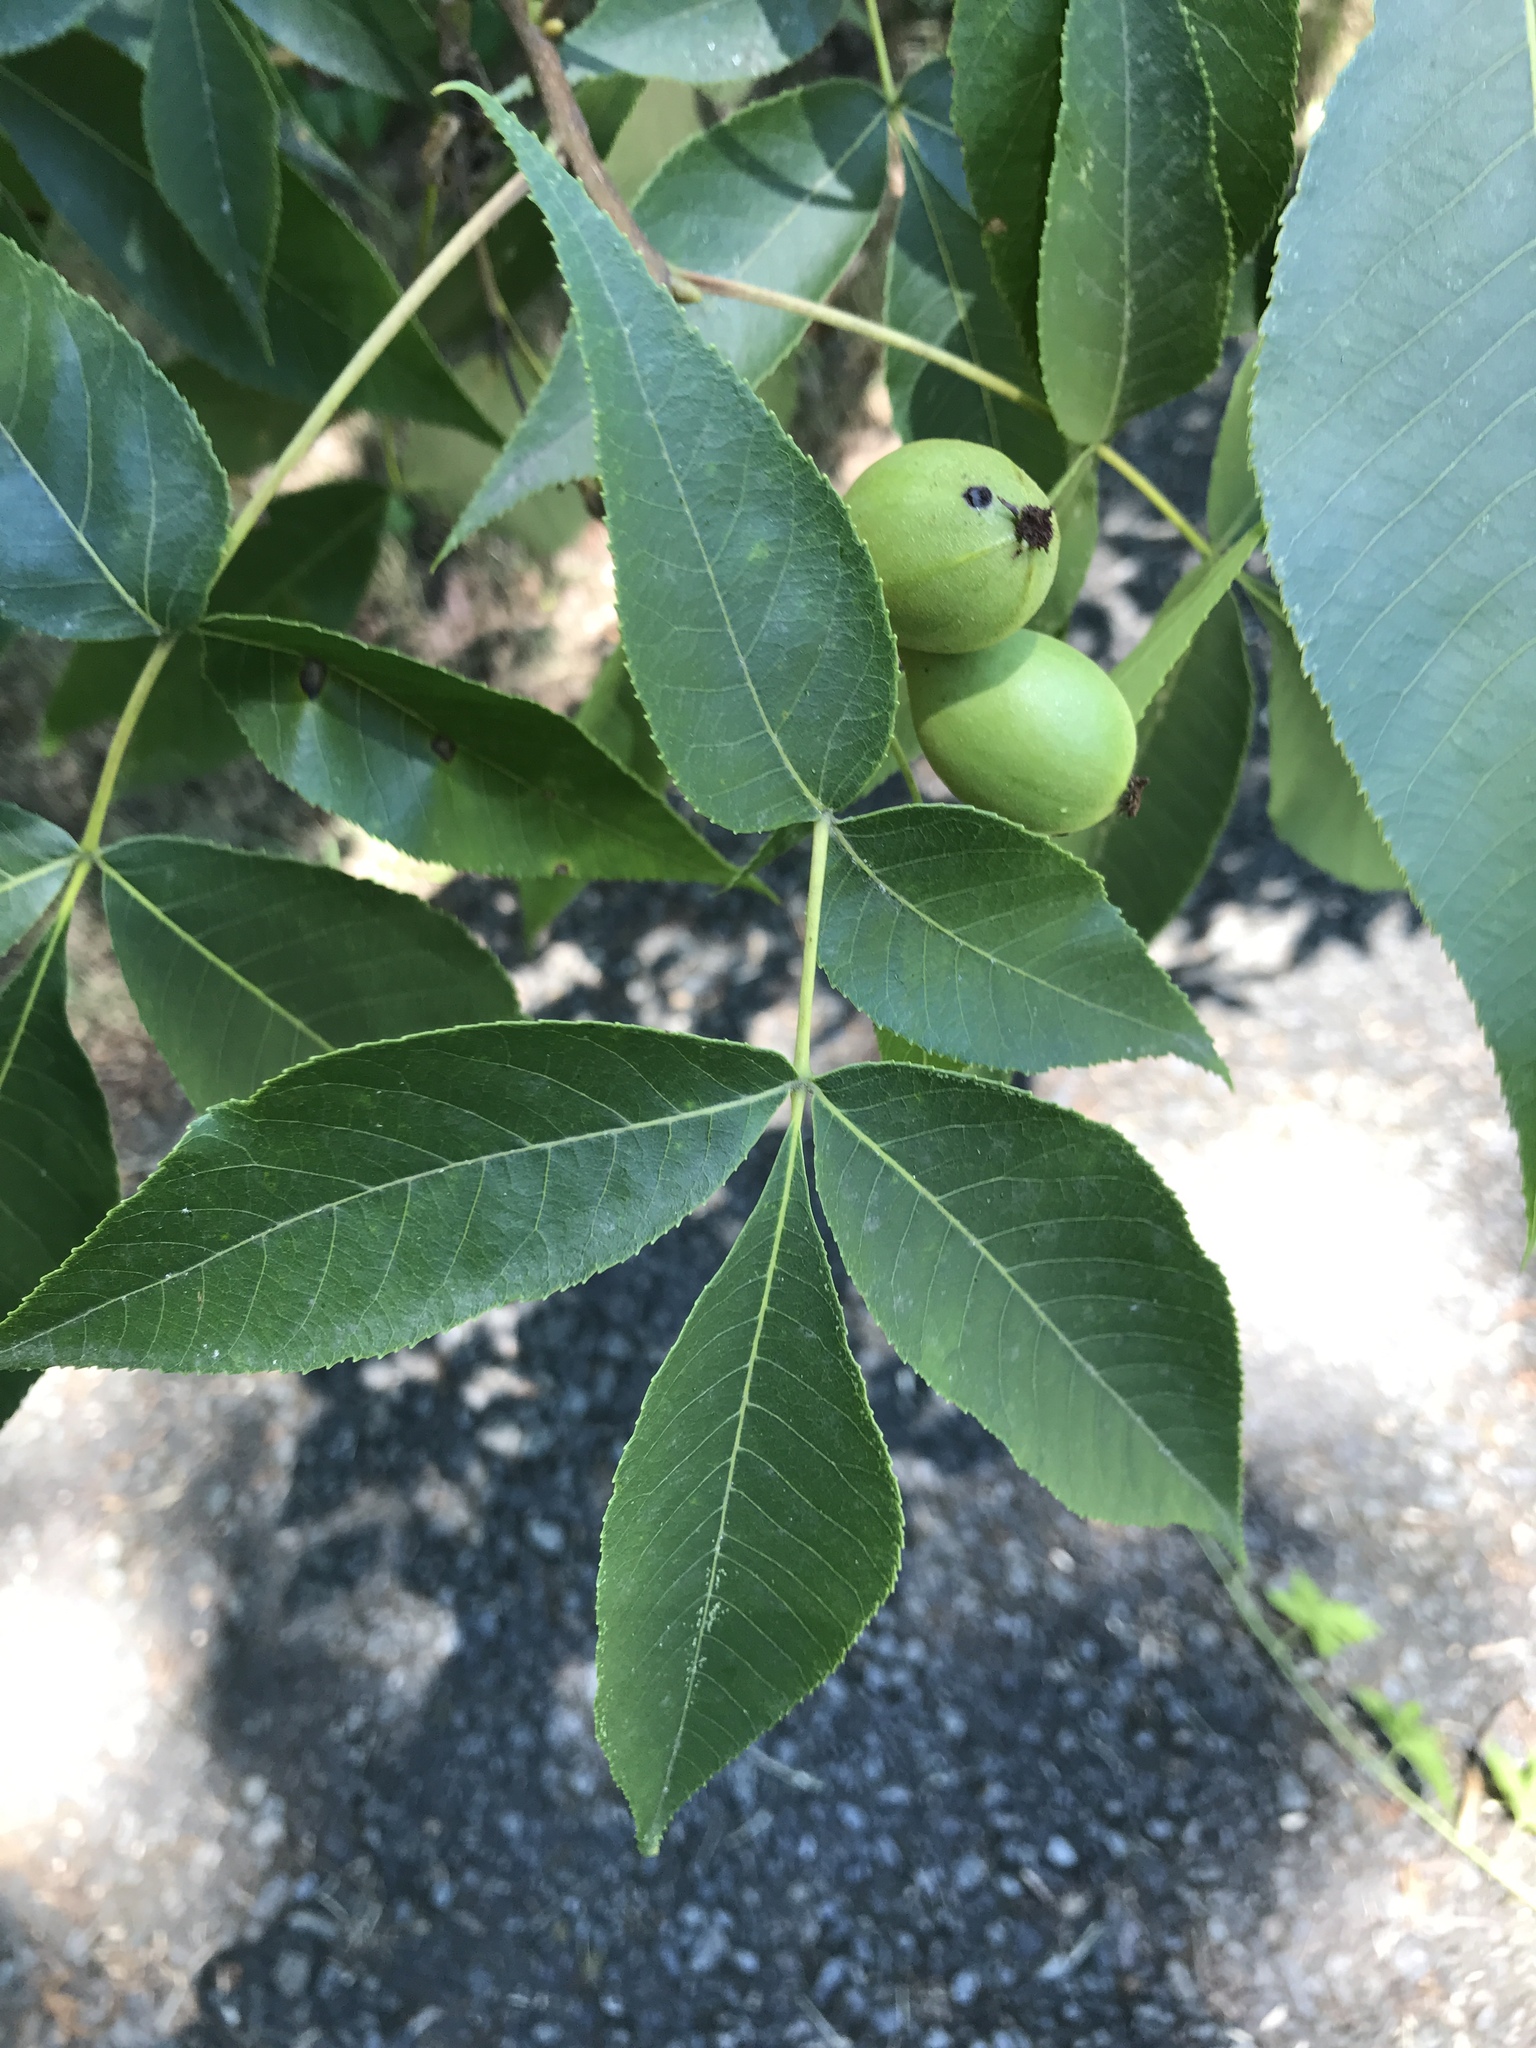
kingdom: Plantae
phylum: Tracheophyta
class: Magnoliopsida
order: Fagales
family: Juglandaceae
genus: Carya
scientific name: Carya glabra
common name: Pignut hickory
